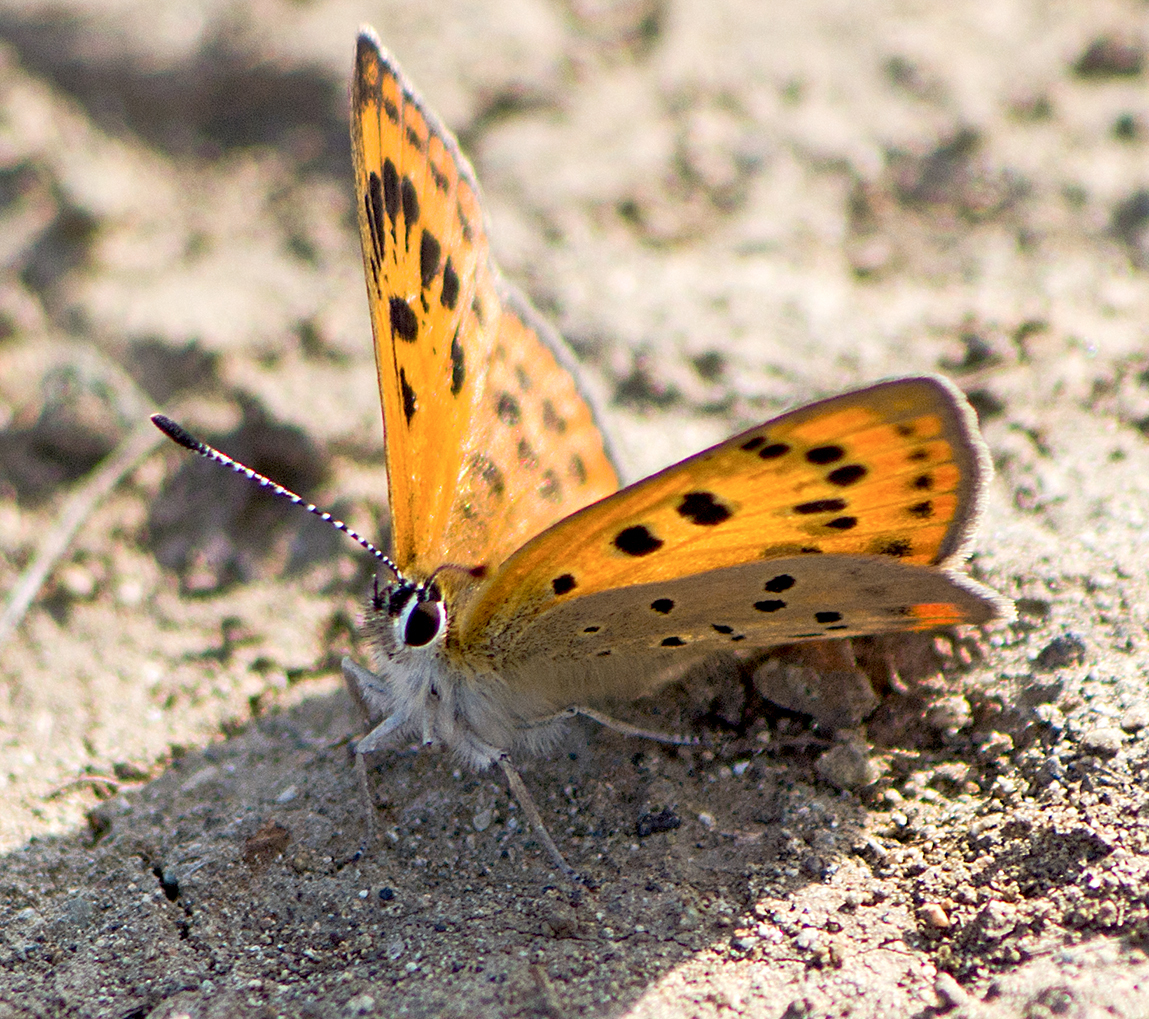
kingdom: Animalia
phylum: Arthropoda
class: Insecta
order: Lepidoptera
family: Lycaenidae
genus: Polyommatus
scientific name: Polyommatus ottomanus
